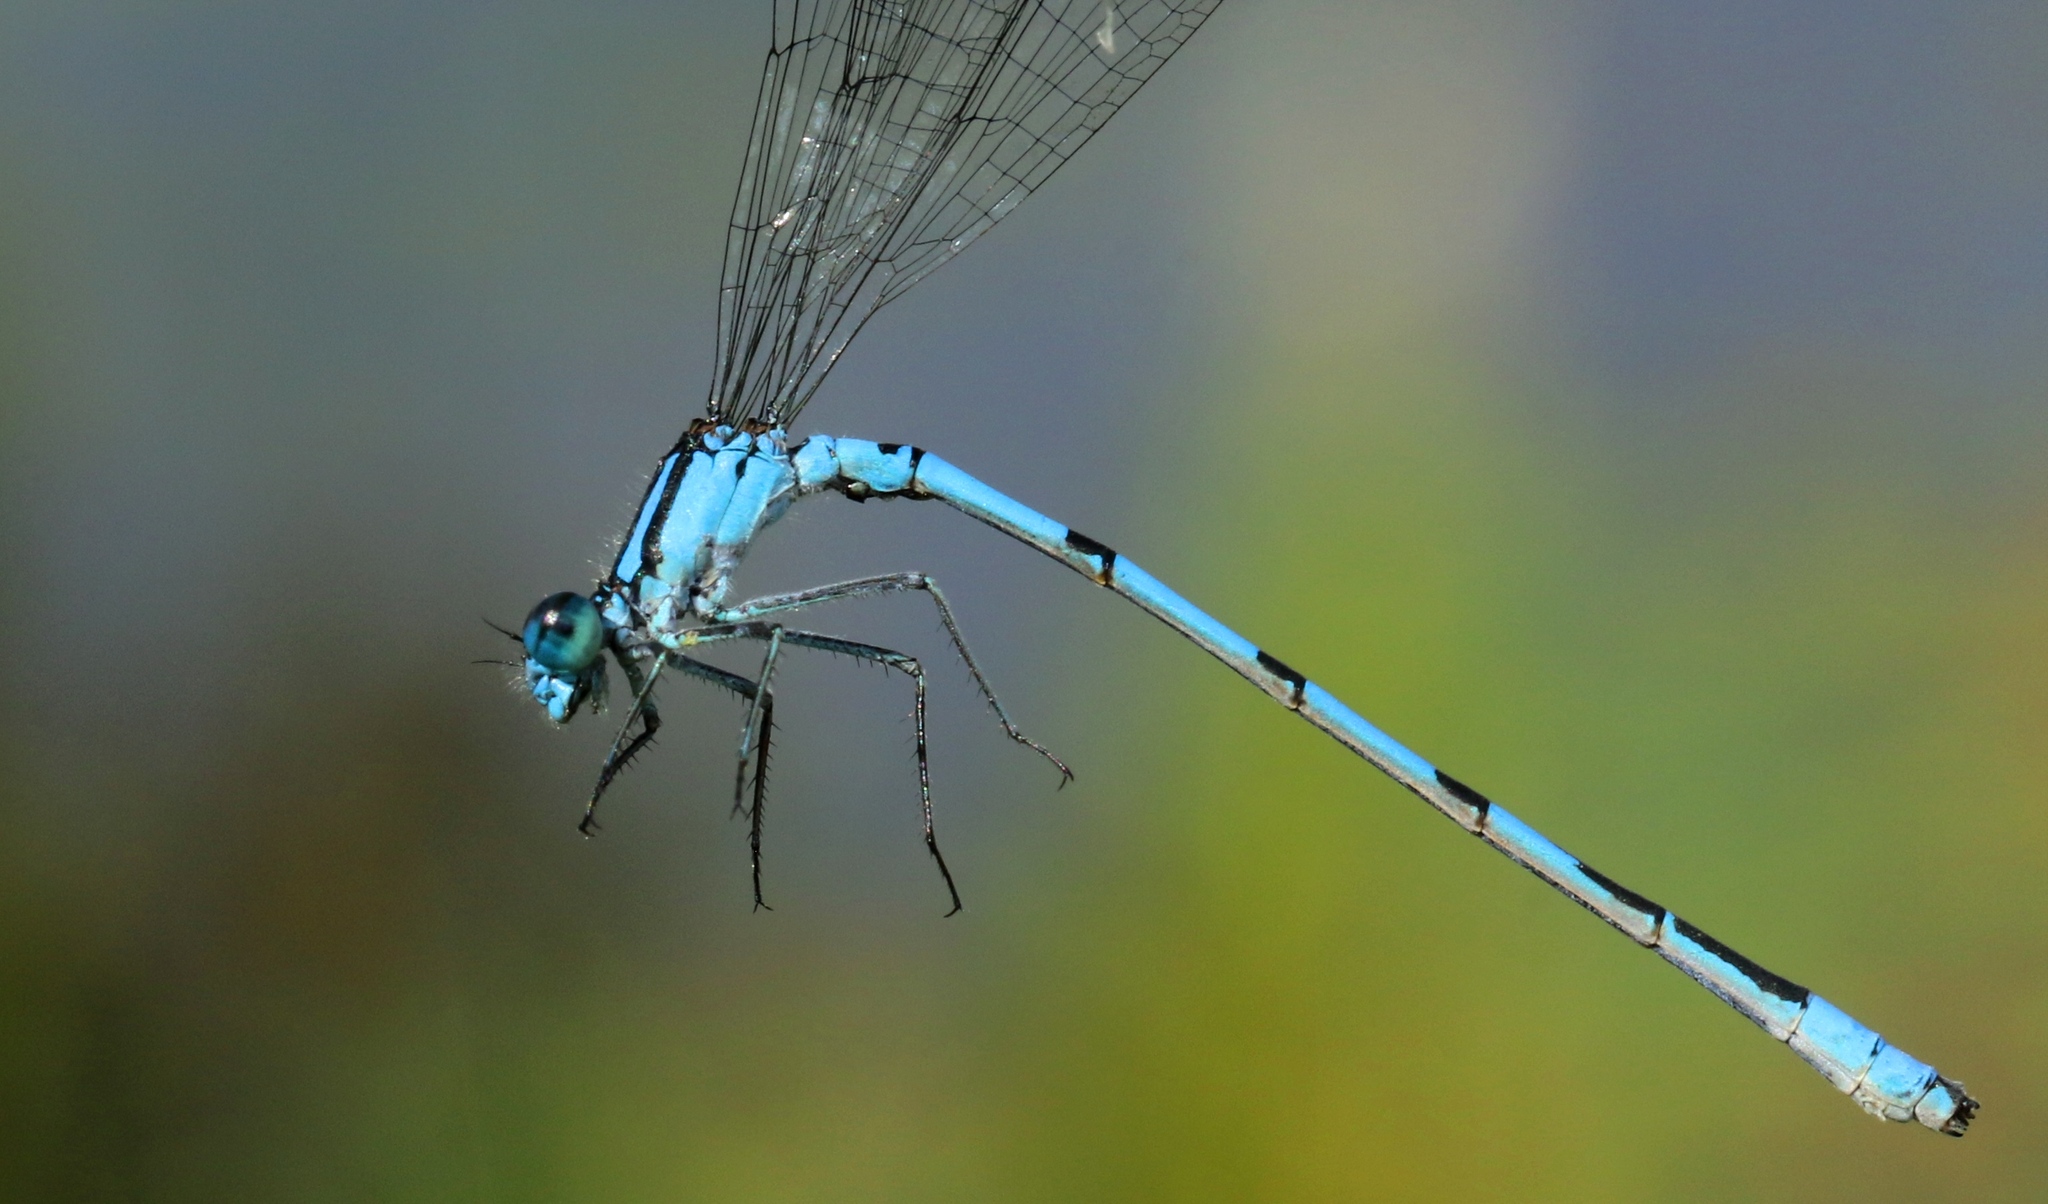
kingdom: Animalia
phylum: Arthropoda
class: Insecta
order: Odonata
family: Coenagrionidae
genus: Enallagma
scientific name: Enallagma ebrium
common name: Marsh bluet
